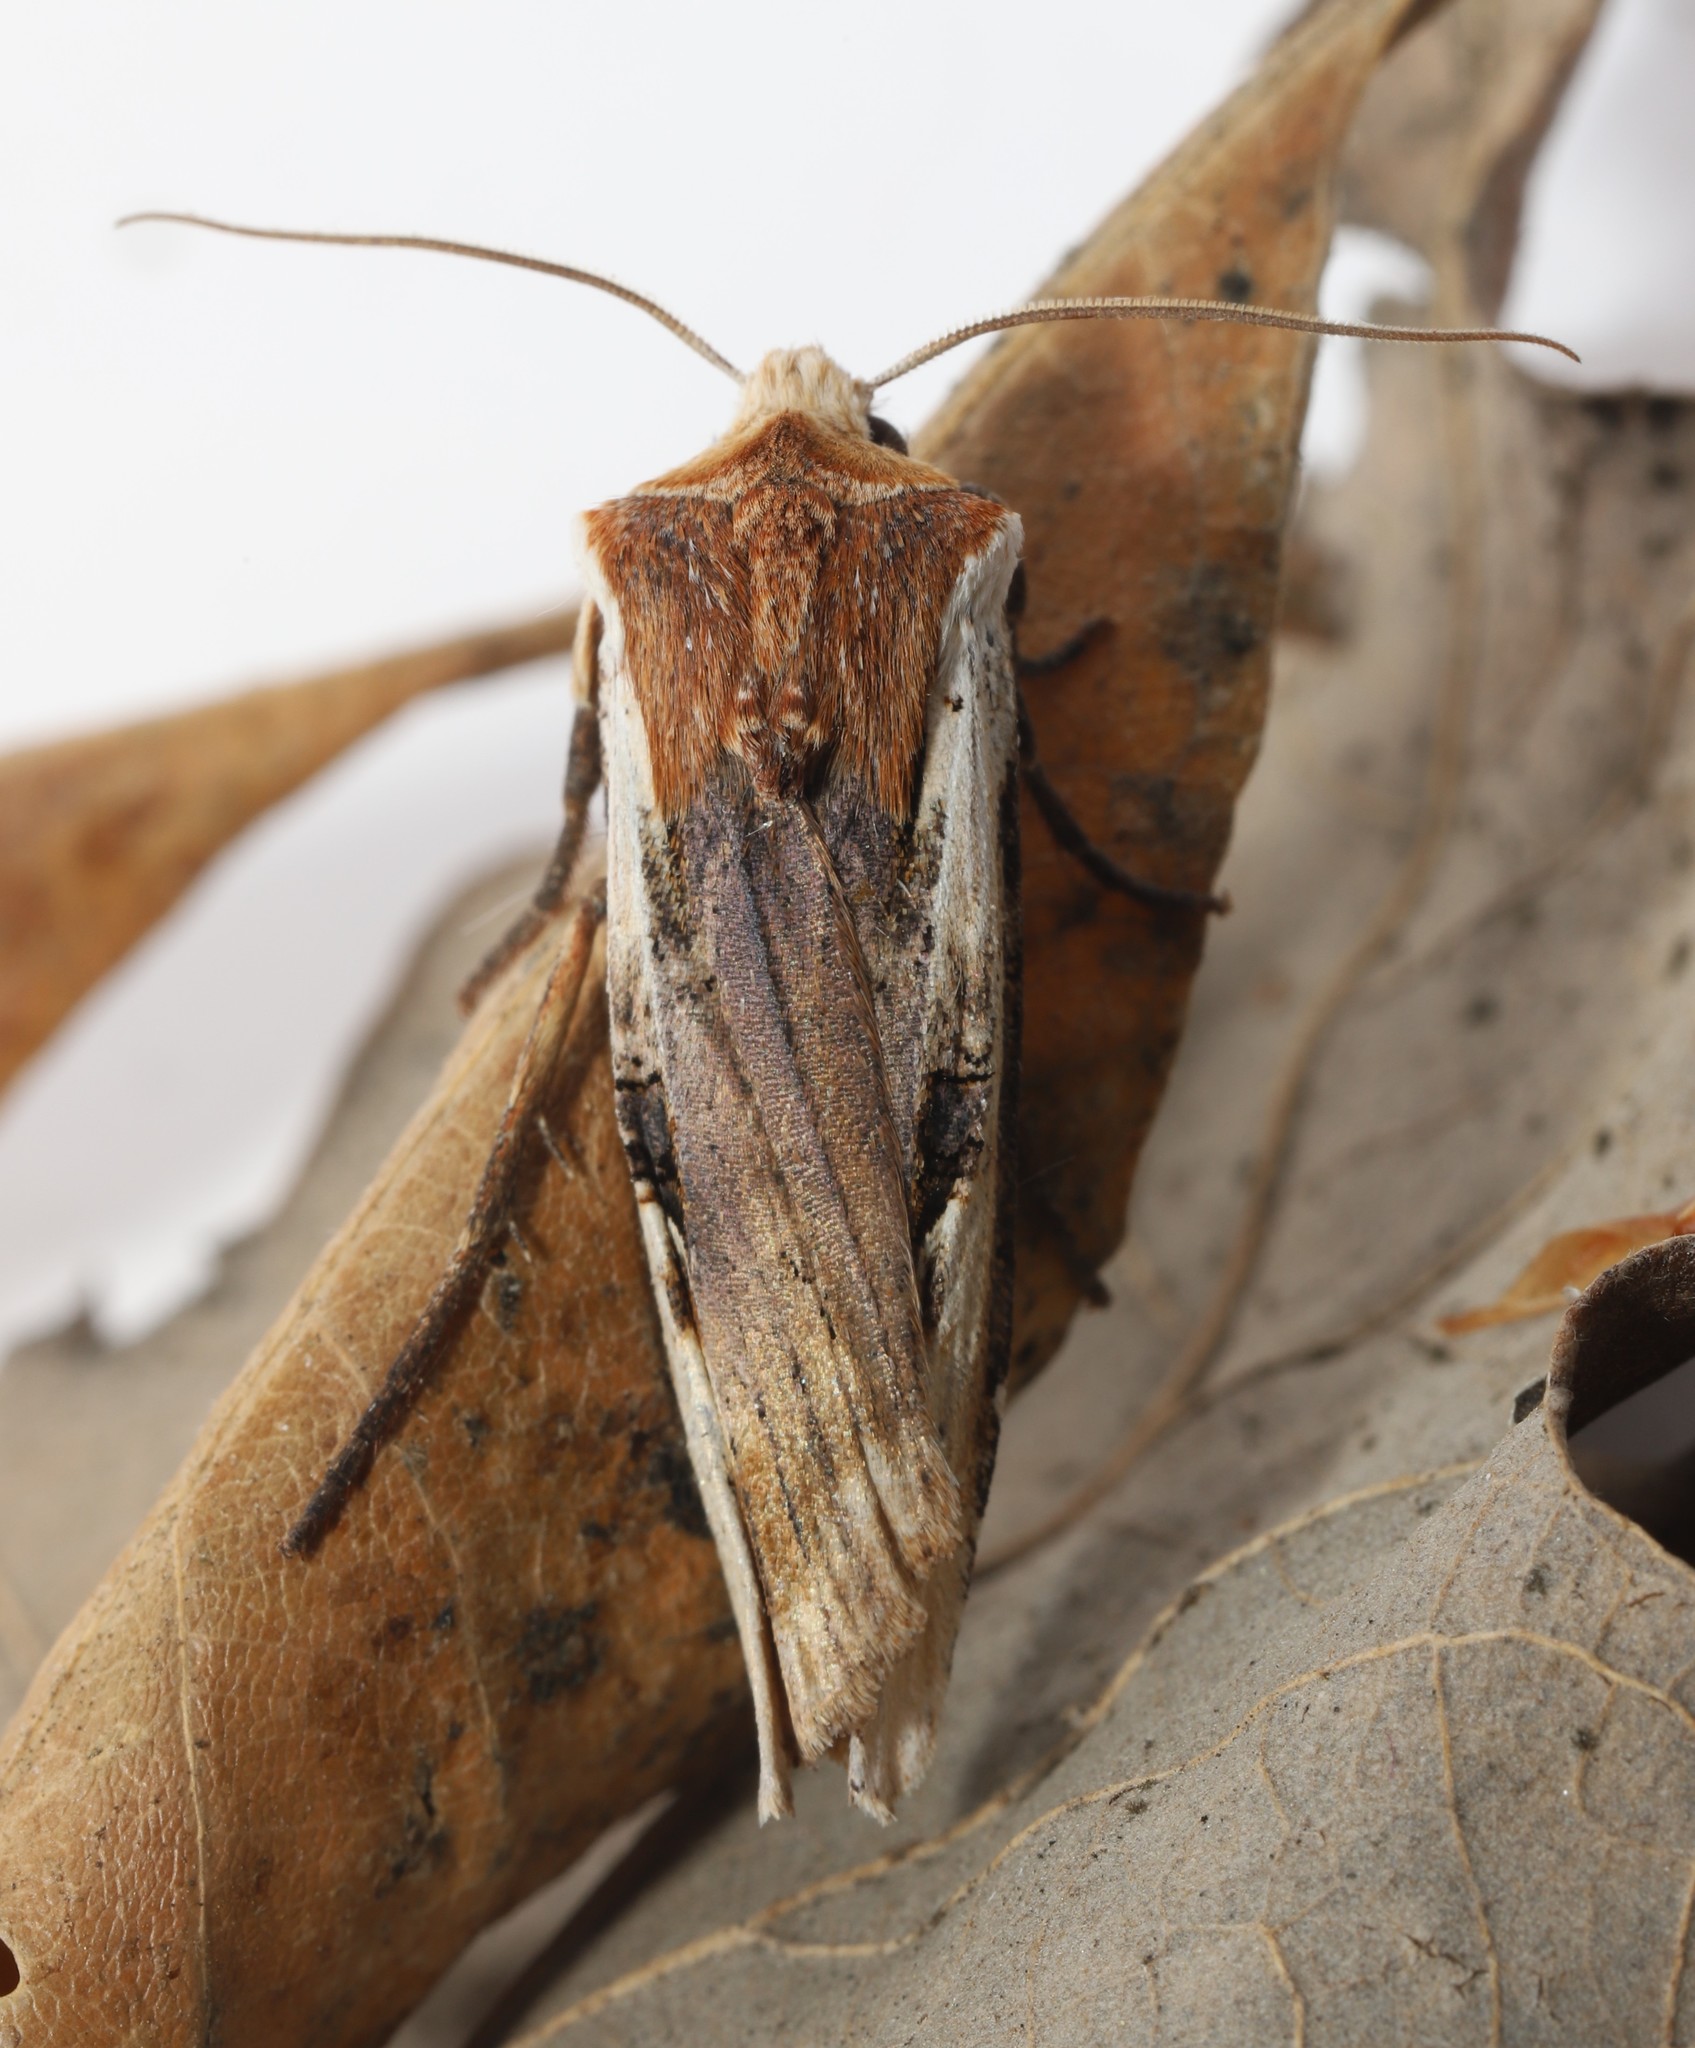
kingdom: Animalia
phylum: Arthropoda
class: Insecta
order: Lepidoptera
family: Noctuidae
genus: Xylena
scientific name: Xylena curvimacula
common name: Dot-and-dash swordgrass moth
